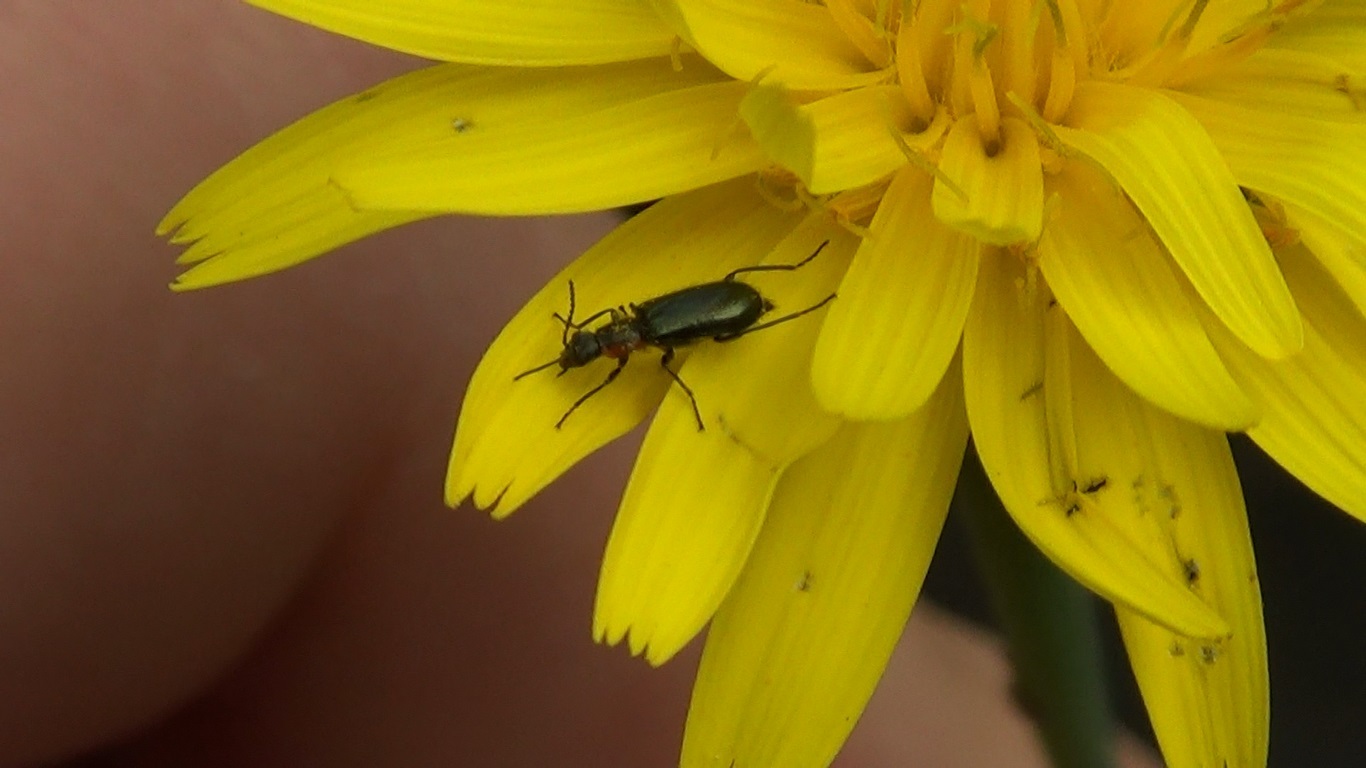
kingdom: Animalia
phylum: Arthropoda
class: Insecta
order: Coleoptera
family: Malachiidae
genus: Attalus
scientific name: Attalus aetnensis
